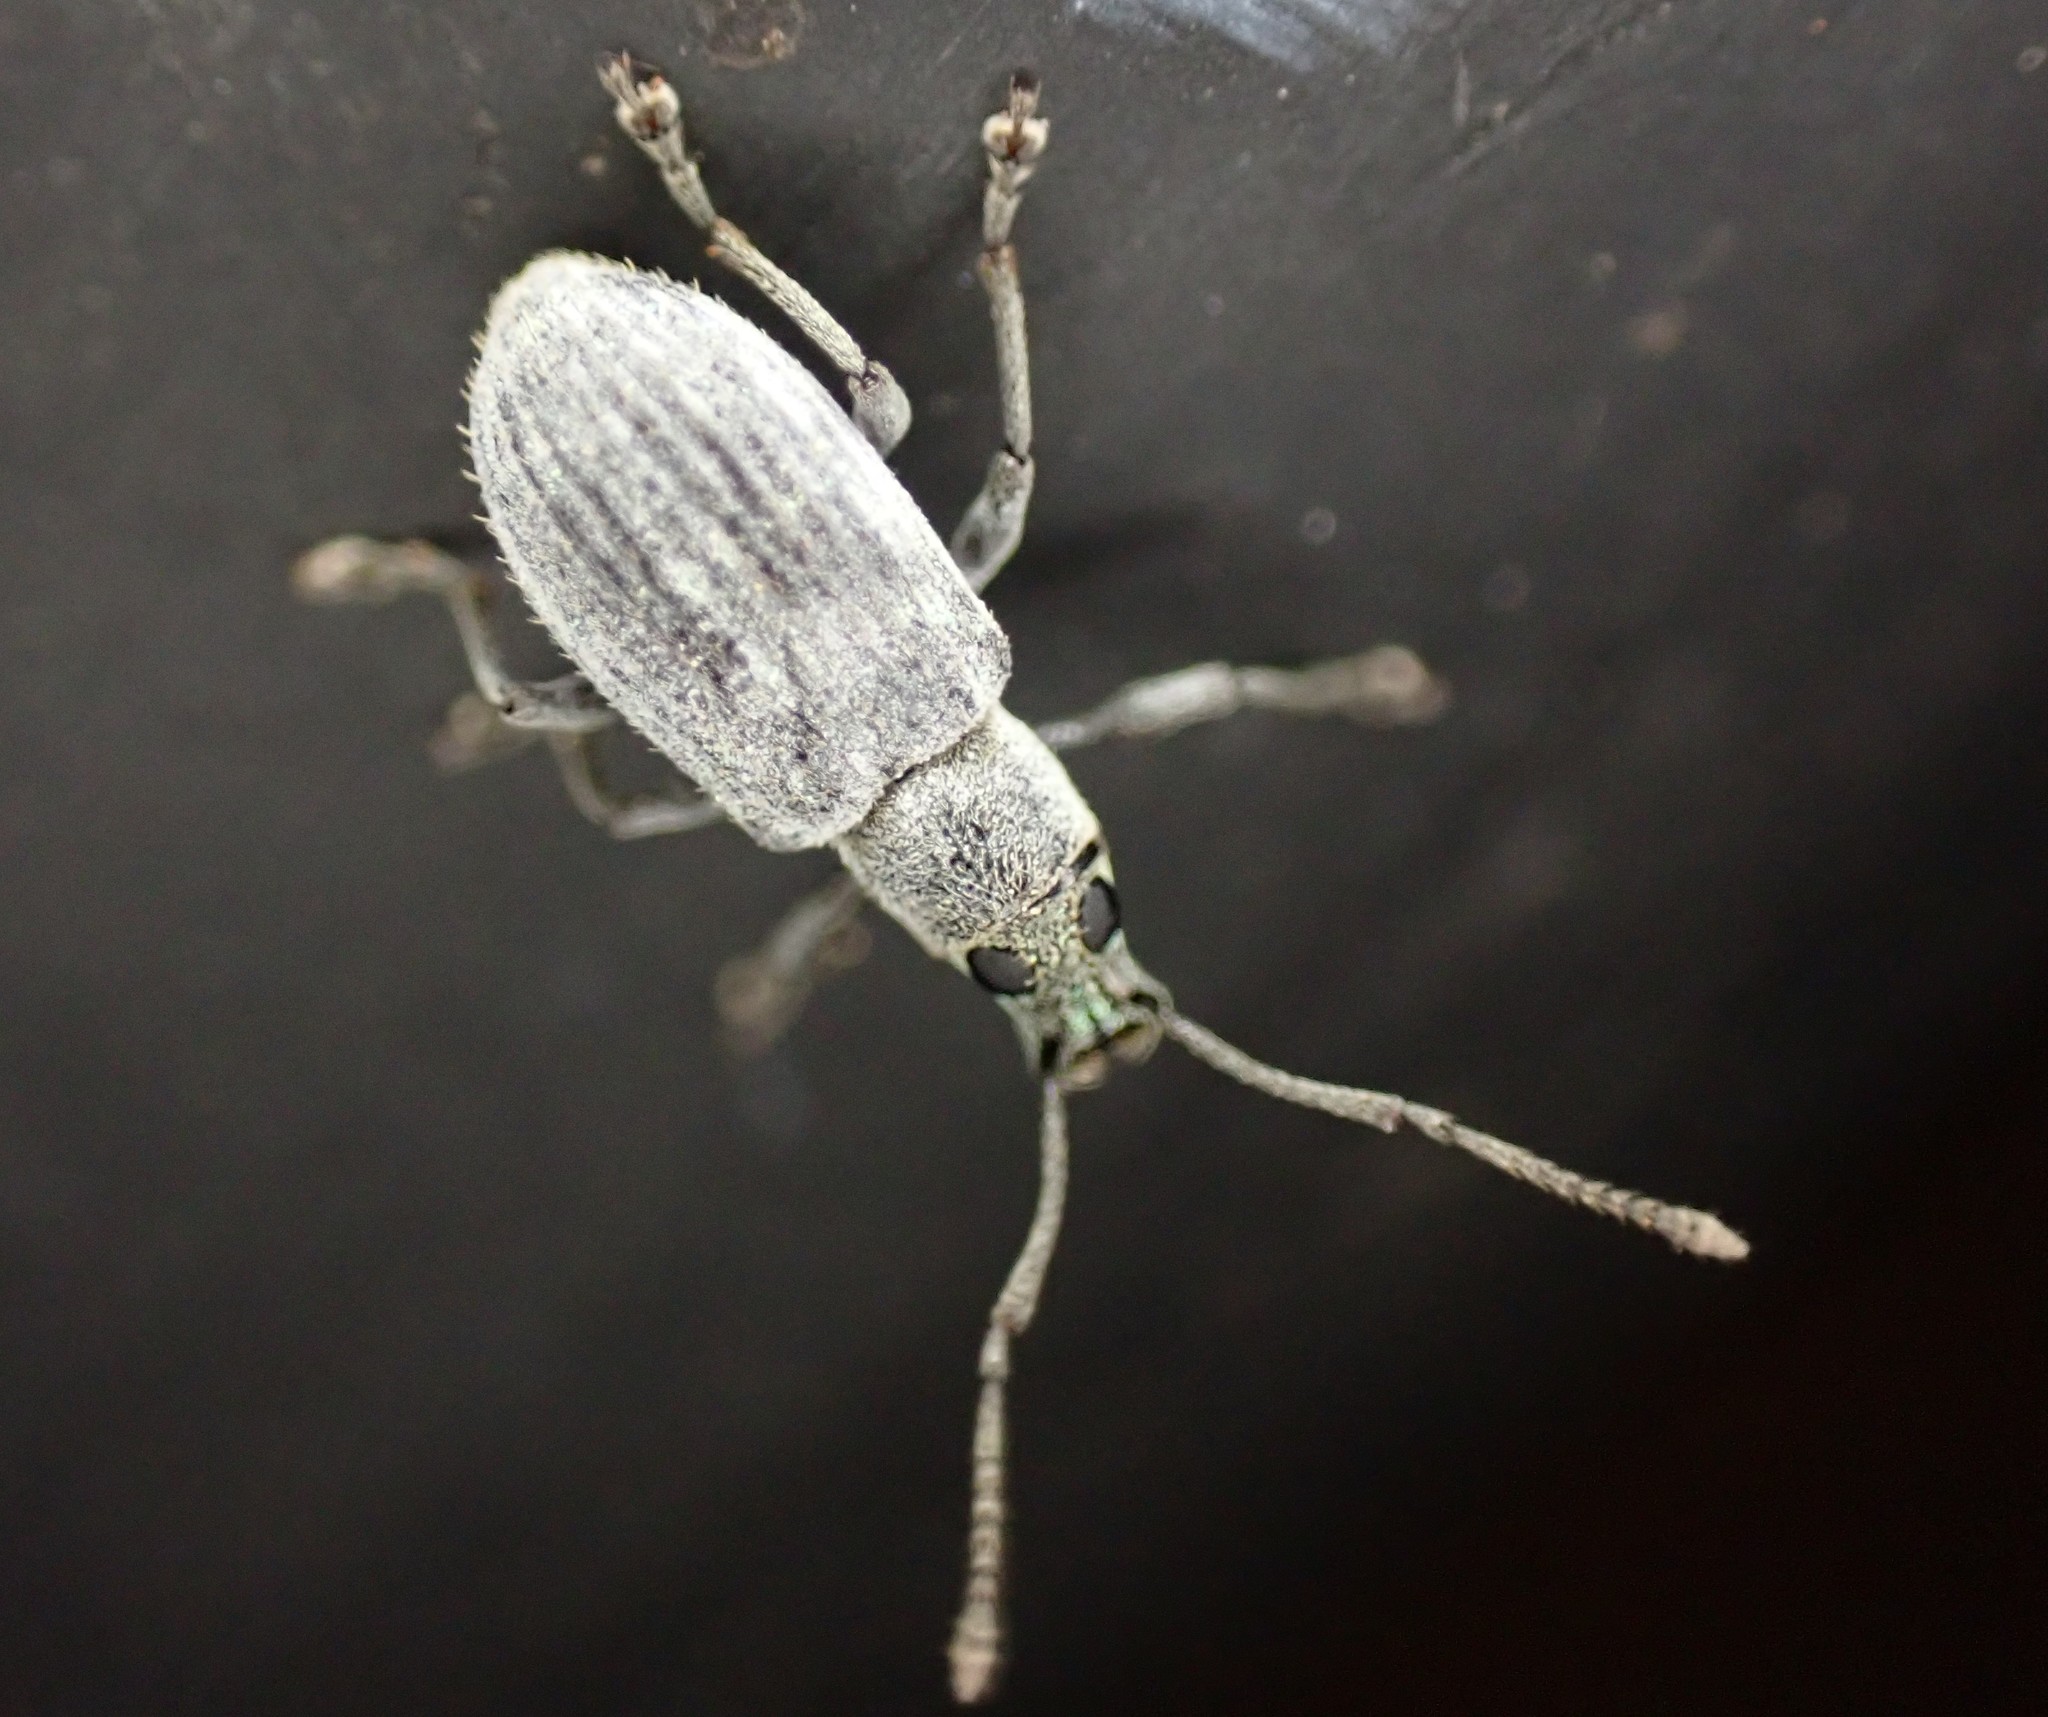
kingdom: Animalia
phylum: Arthropoda
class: Insecta
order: Coleoptera
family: Curculionidae
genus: Cyrtepistomus
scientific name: Cyrtepistomus castaneus
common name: Weevil
